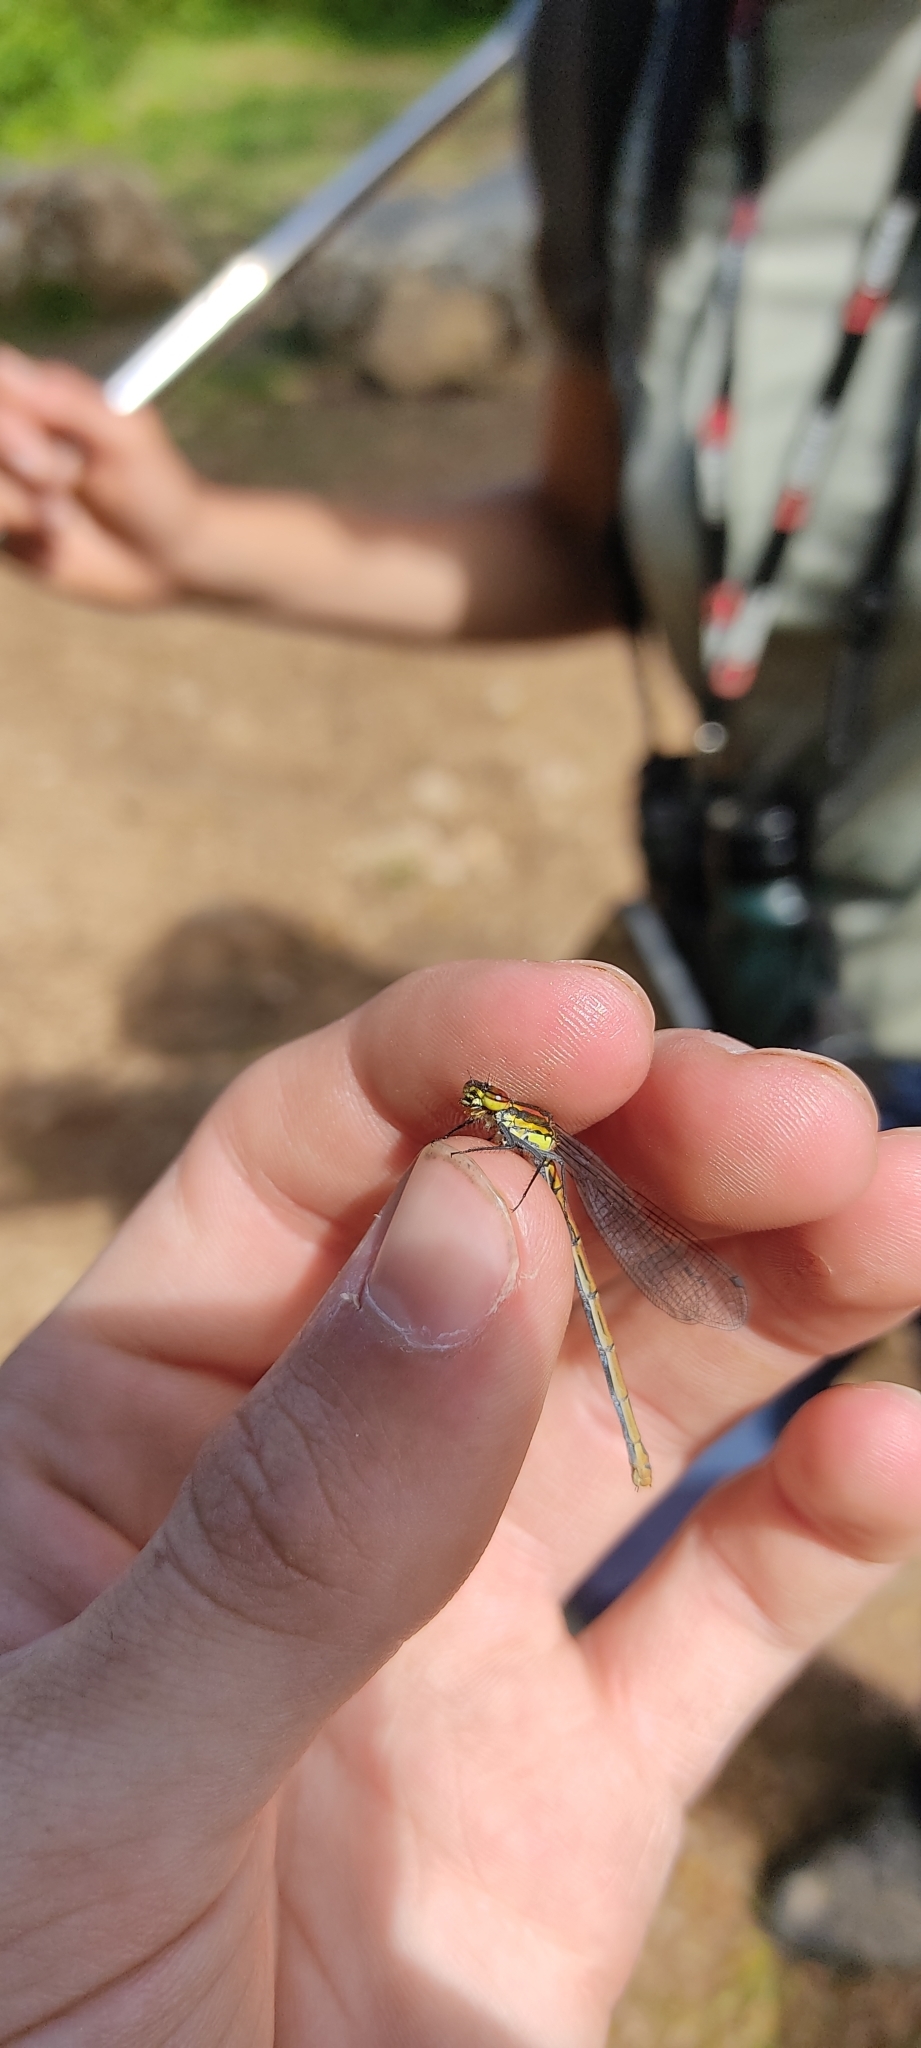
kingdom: Animalia
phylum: Arthropoda
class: Insecta
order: Odonata
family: Coenagrionidae
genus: Pyrrhosoma
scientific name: Pyrrhosoma nymphula
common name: Large red damsel
